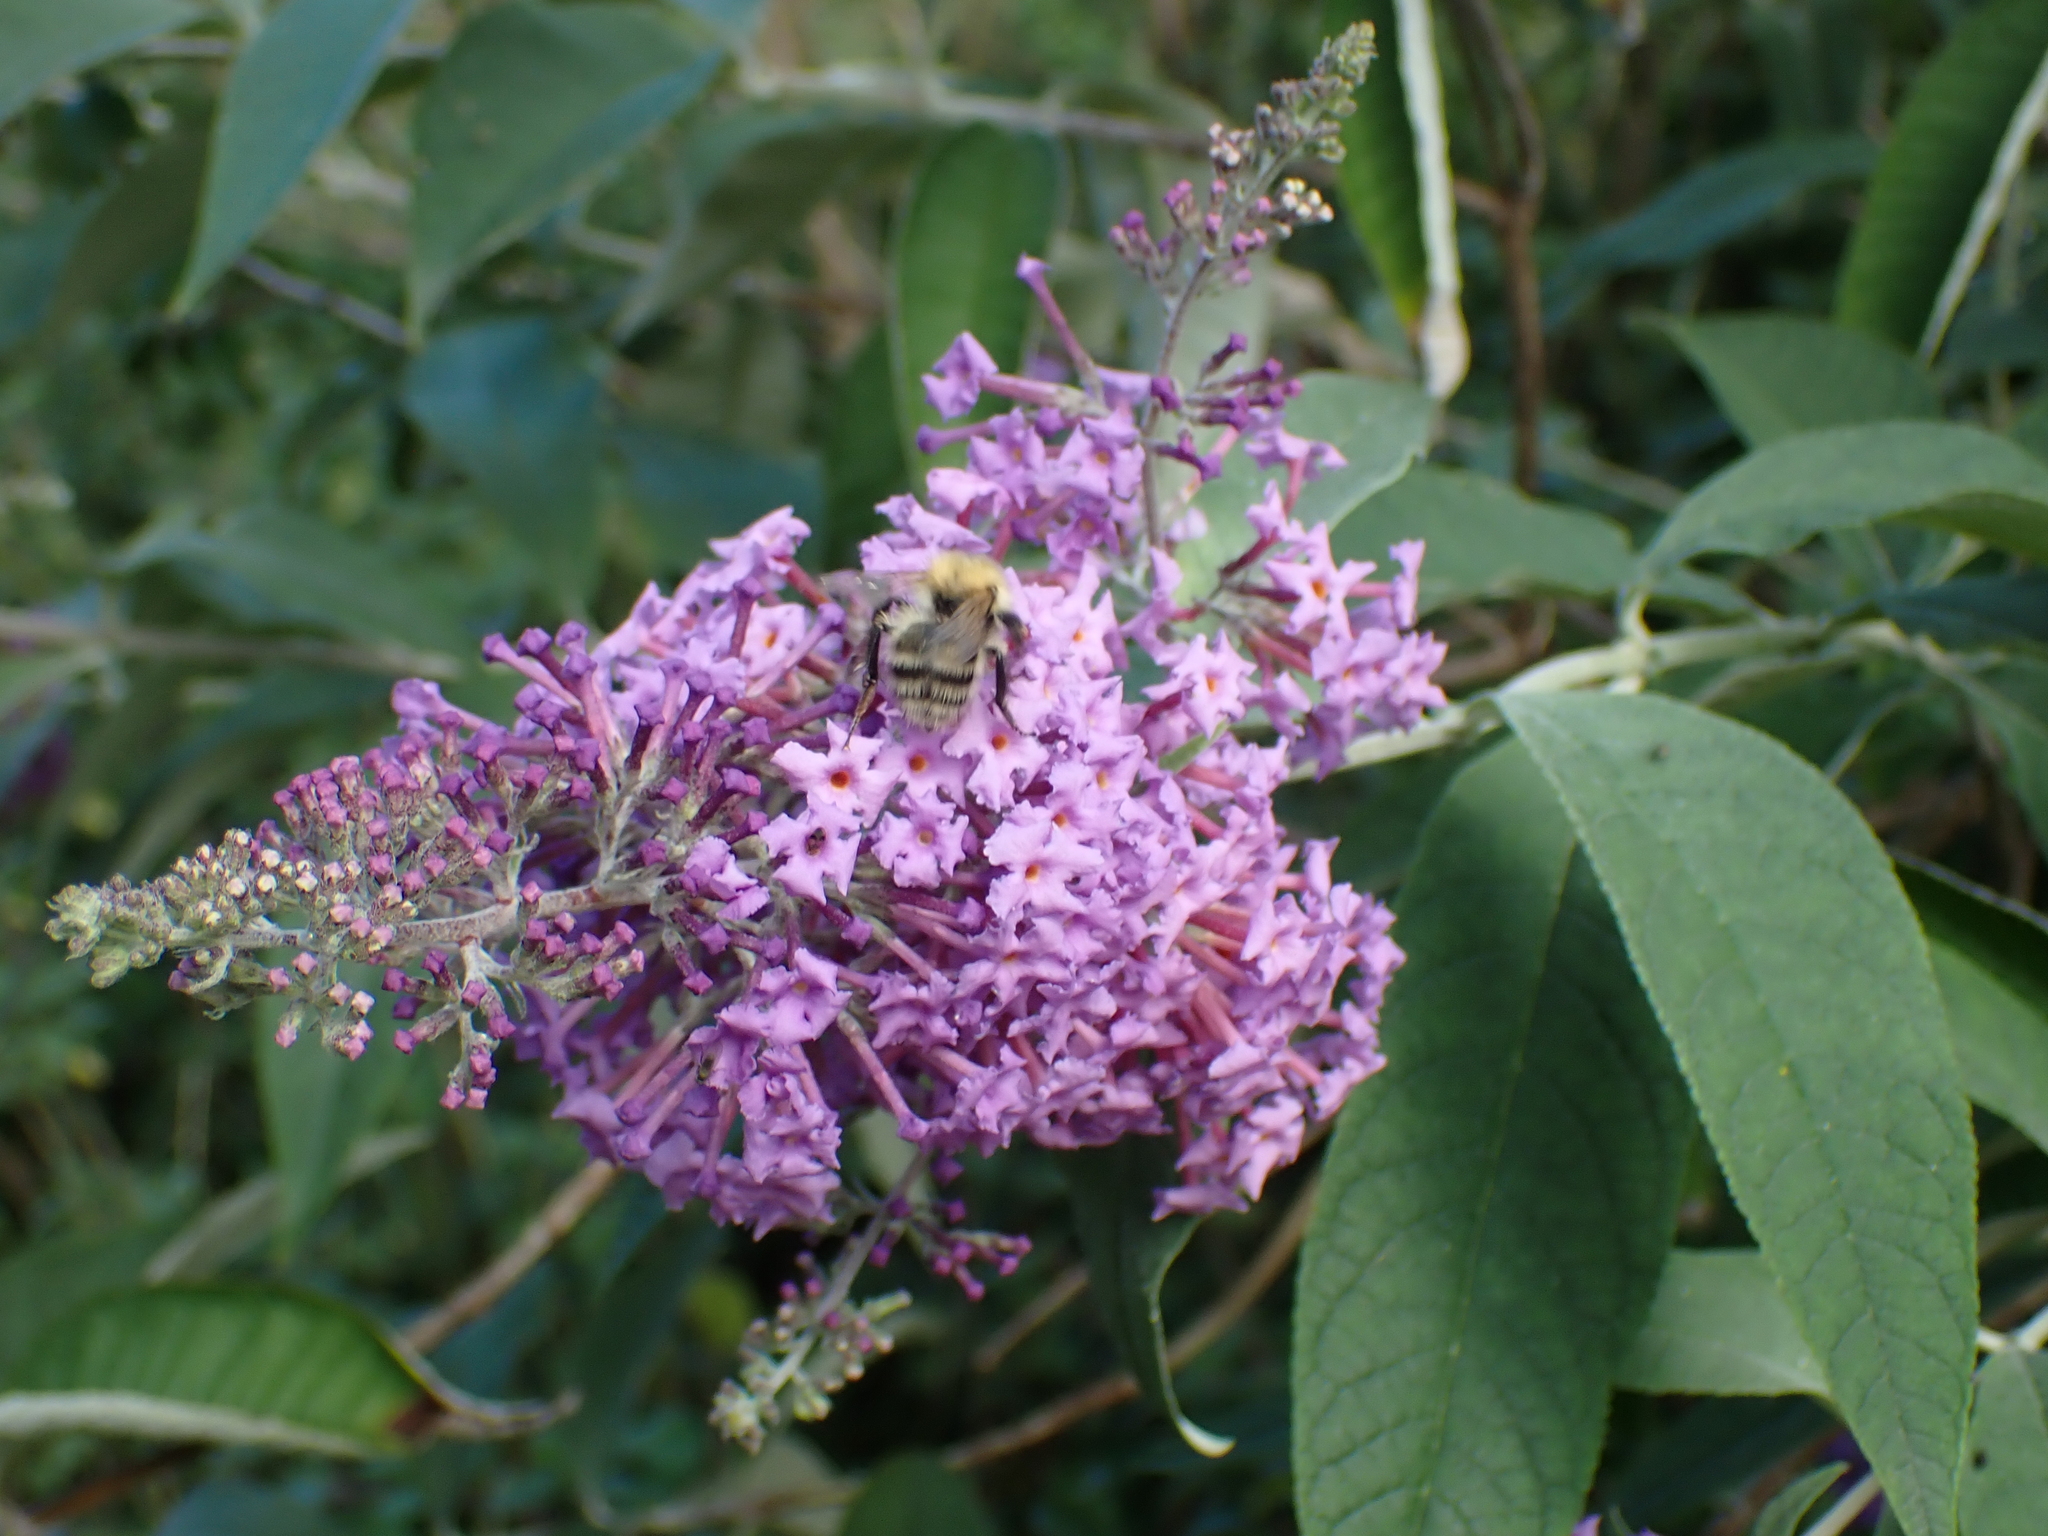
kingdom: Plantae
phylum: Tracheophyta
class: Magnoliopsida
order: Lamiales
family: Scrophulariaceae
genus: Buddleja
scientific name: Buddleja davidii
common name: Butterfly-bush
